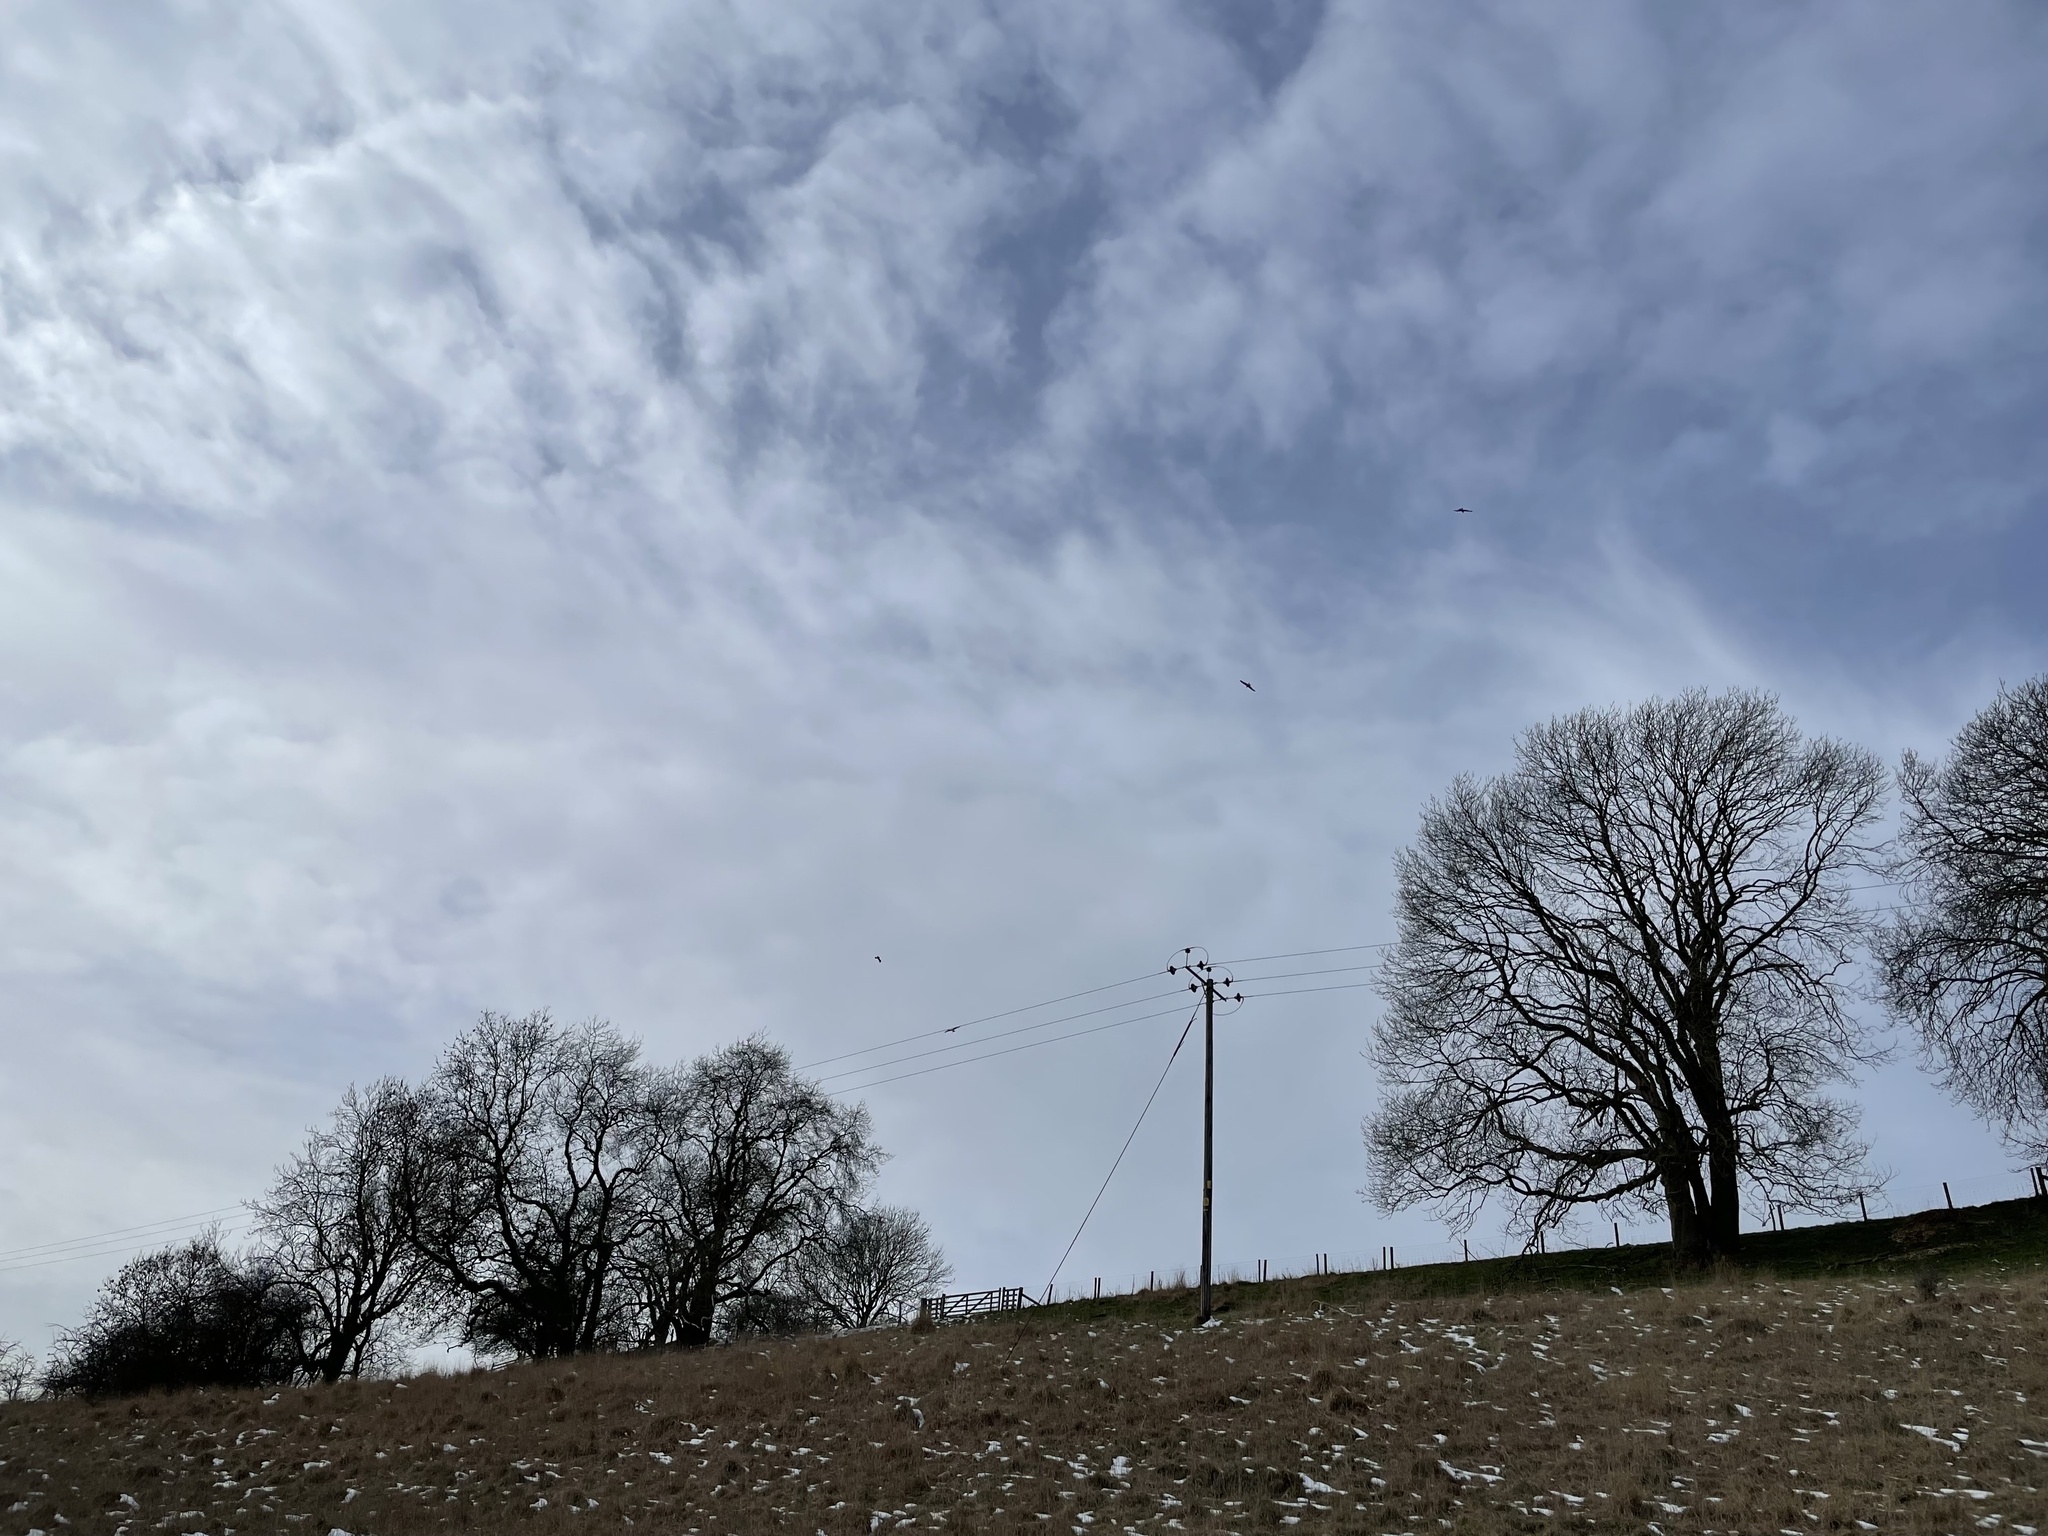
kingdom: Animalia
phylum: Chordata
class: Aves
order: Accipitriformes
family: Accipitridae
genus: Milvus
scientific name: Milvus milvus
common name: Red kite
